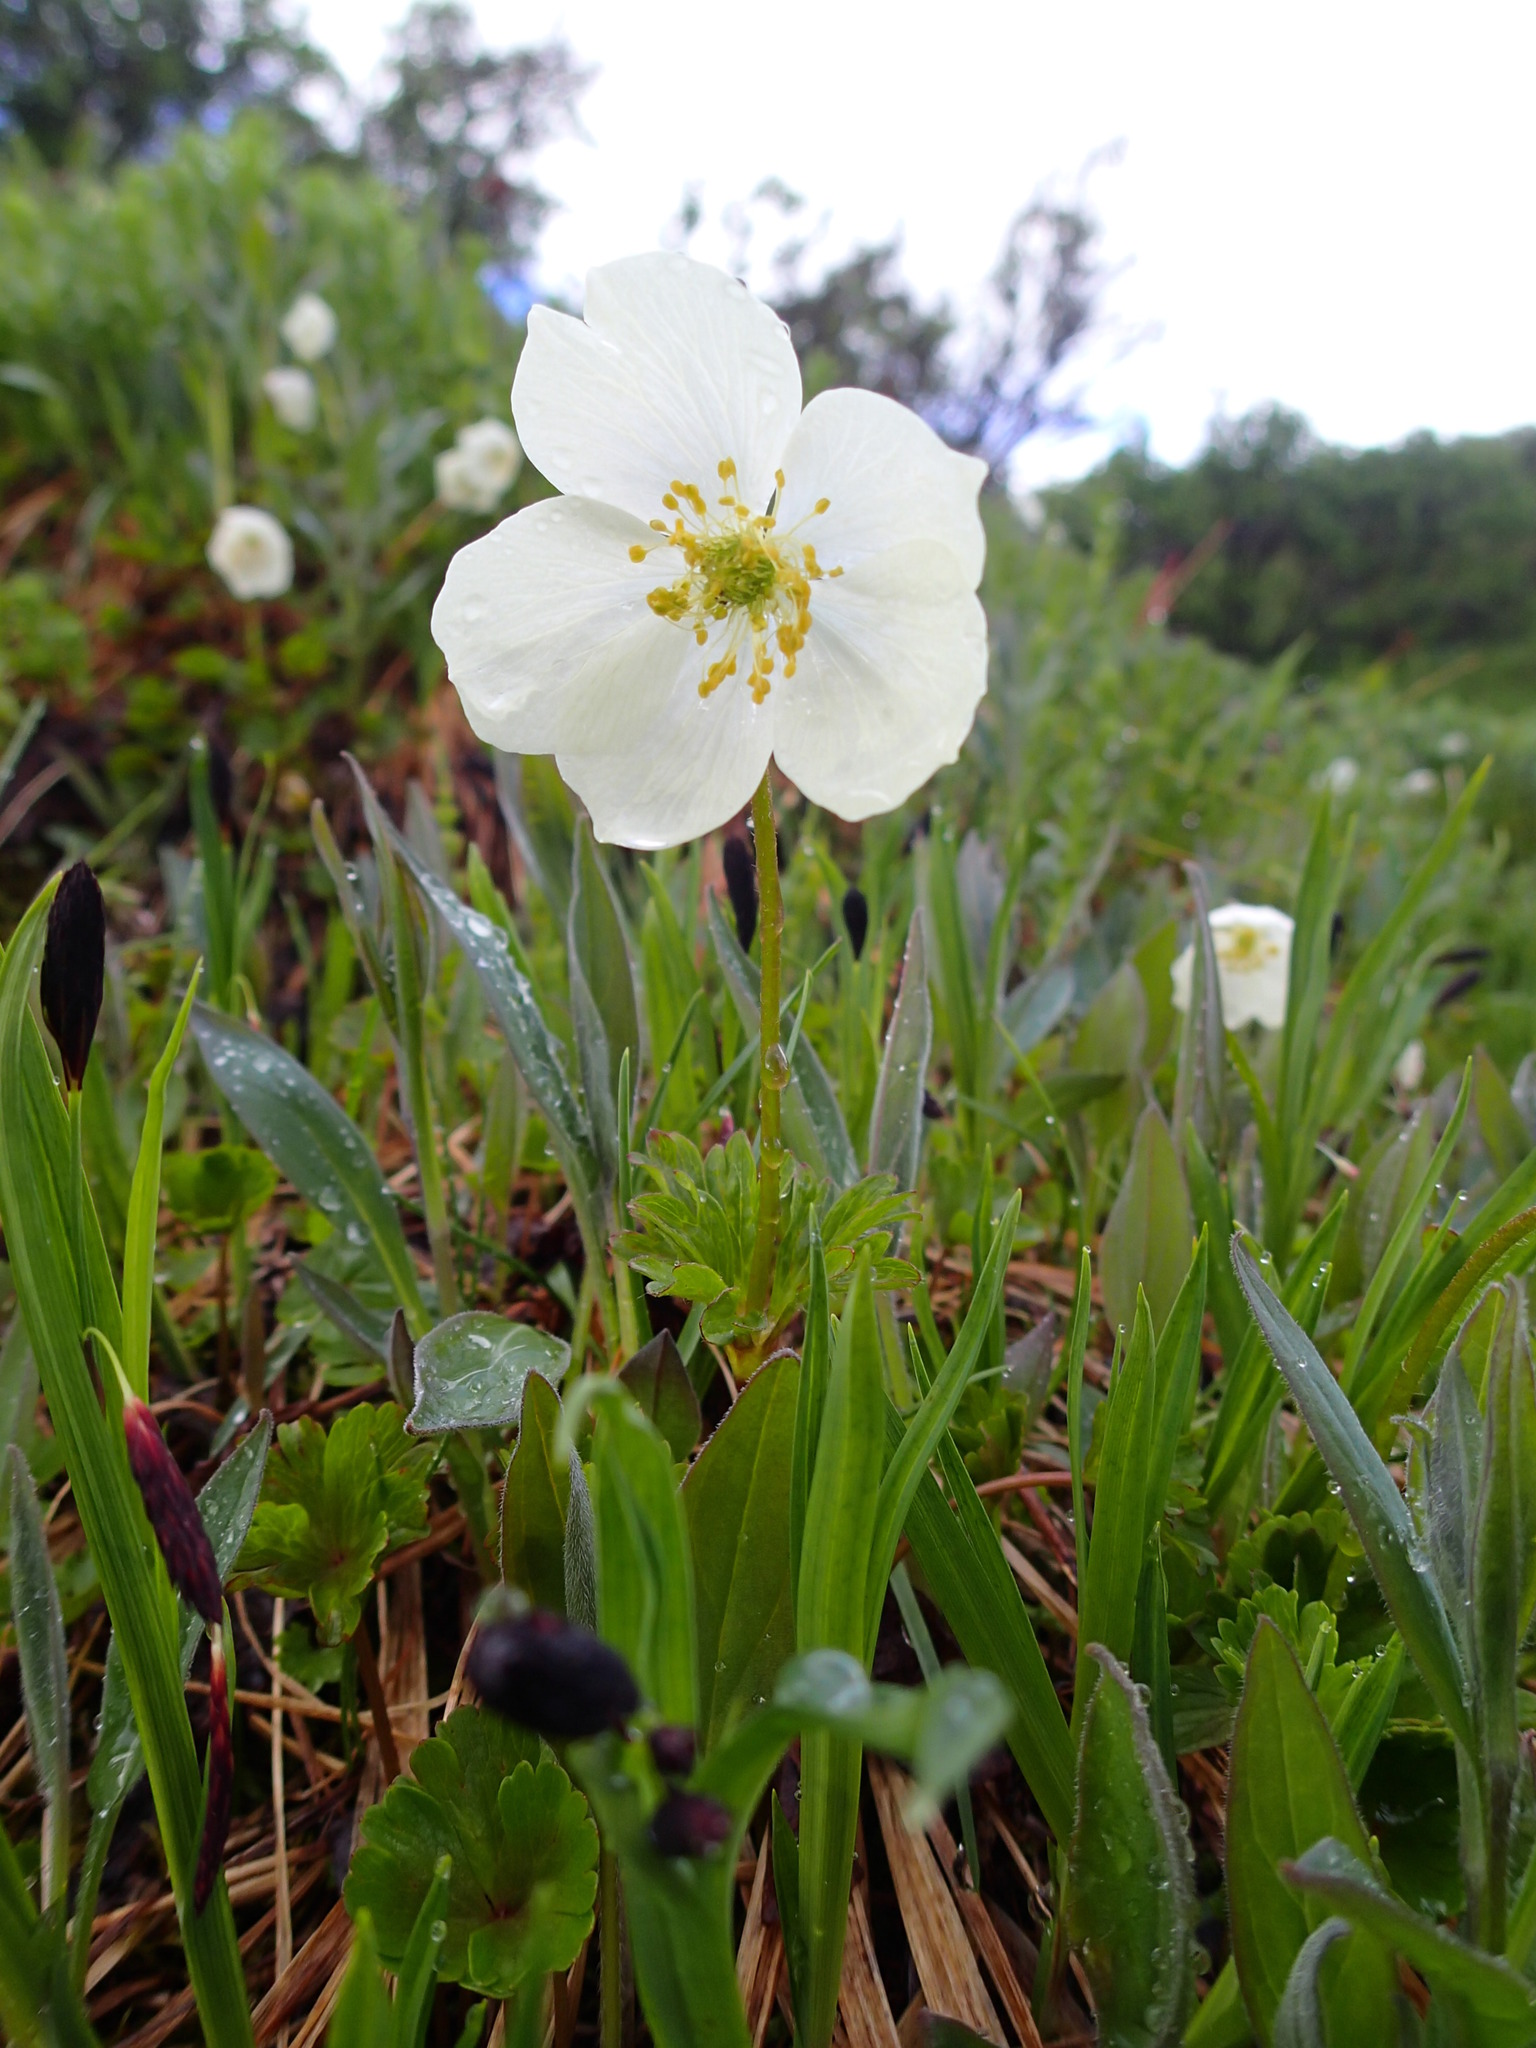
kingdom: Plantae
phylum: Tracheophyta
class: Magnoliopsida
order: Ranunculales
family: Ranunculaceae
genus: Anemone
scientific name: Anemone parviflora
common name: Northern anemone
